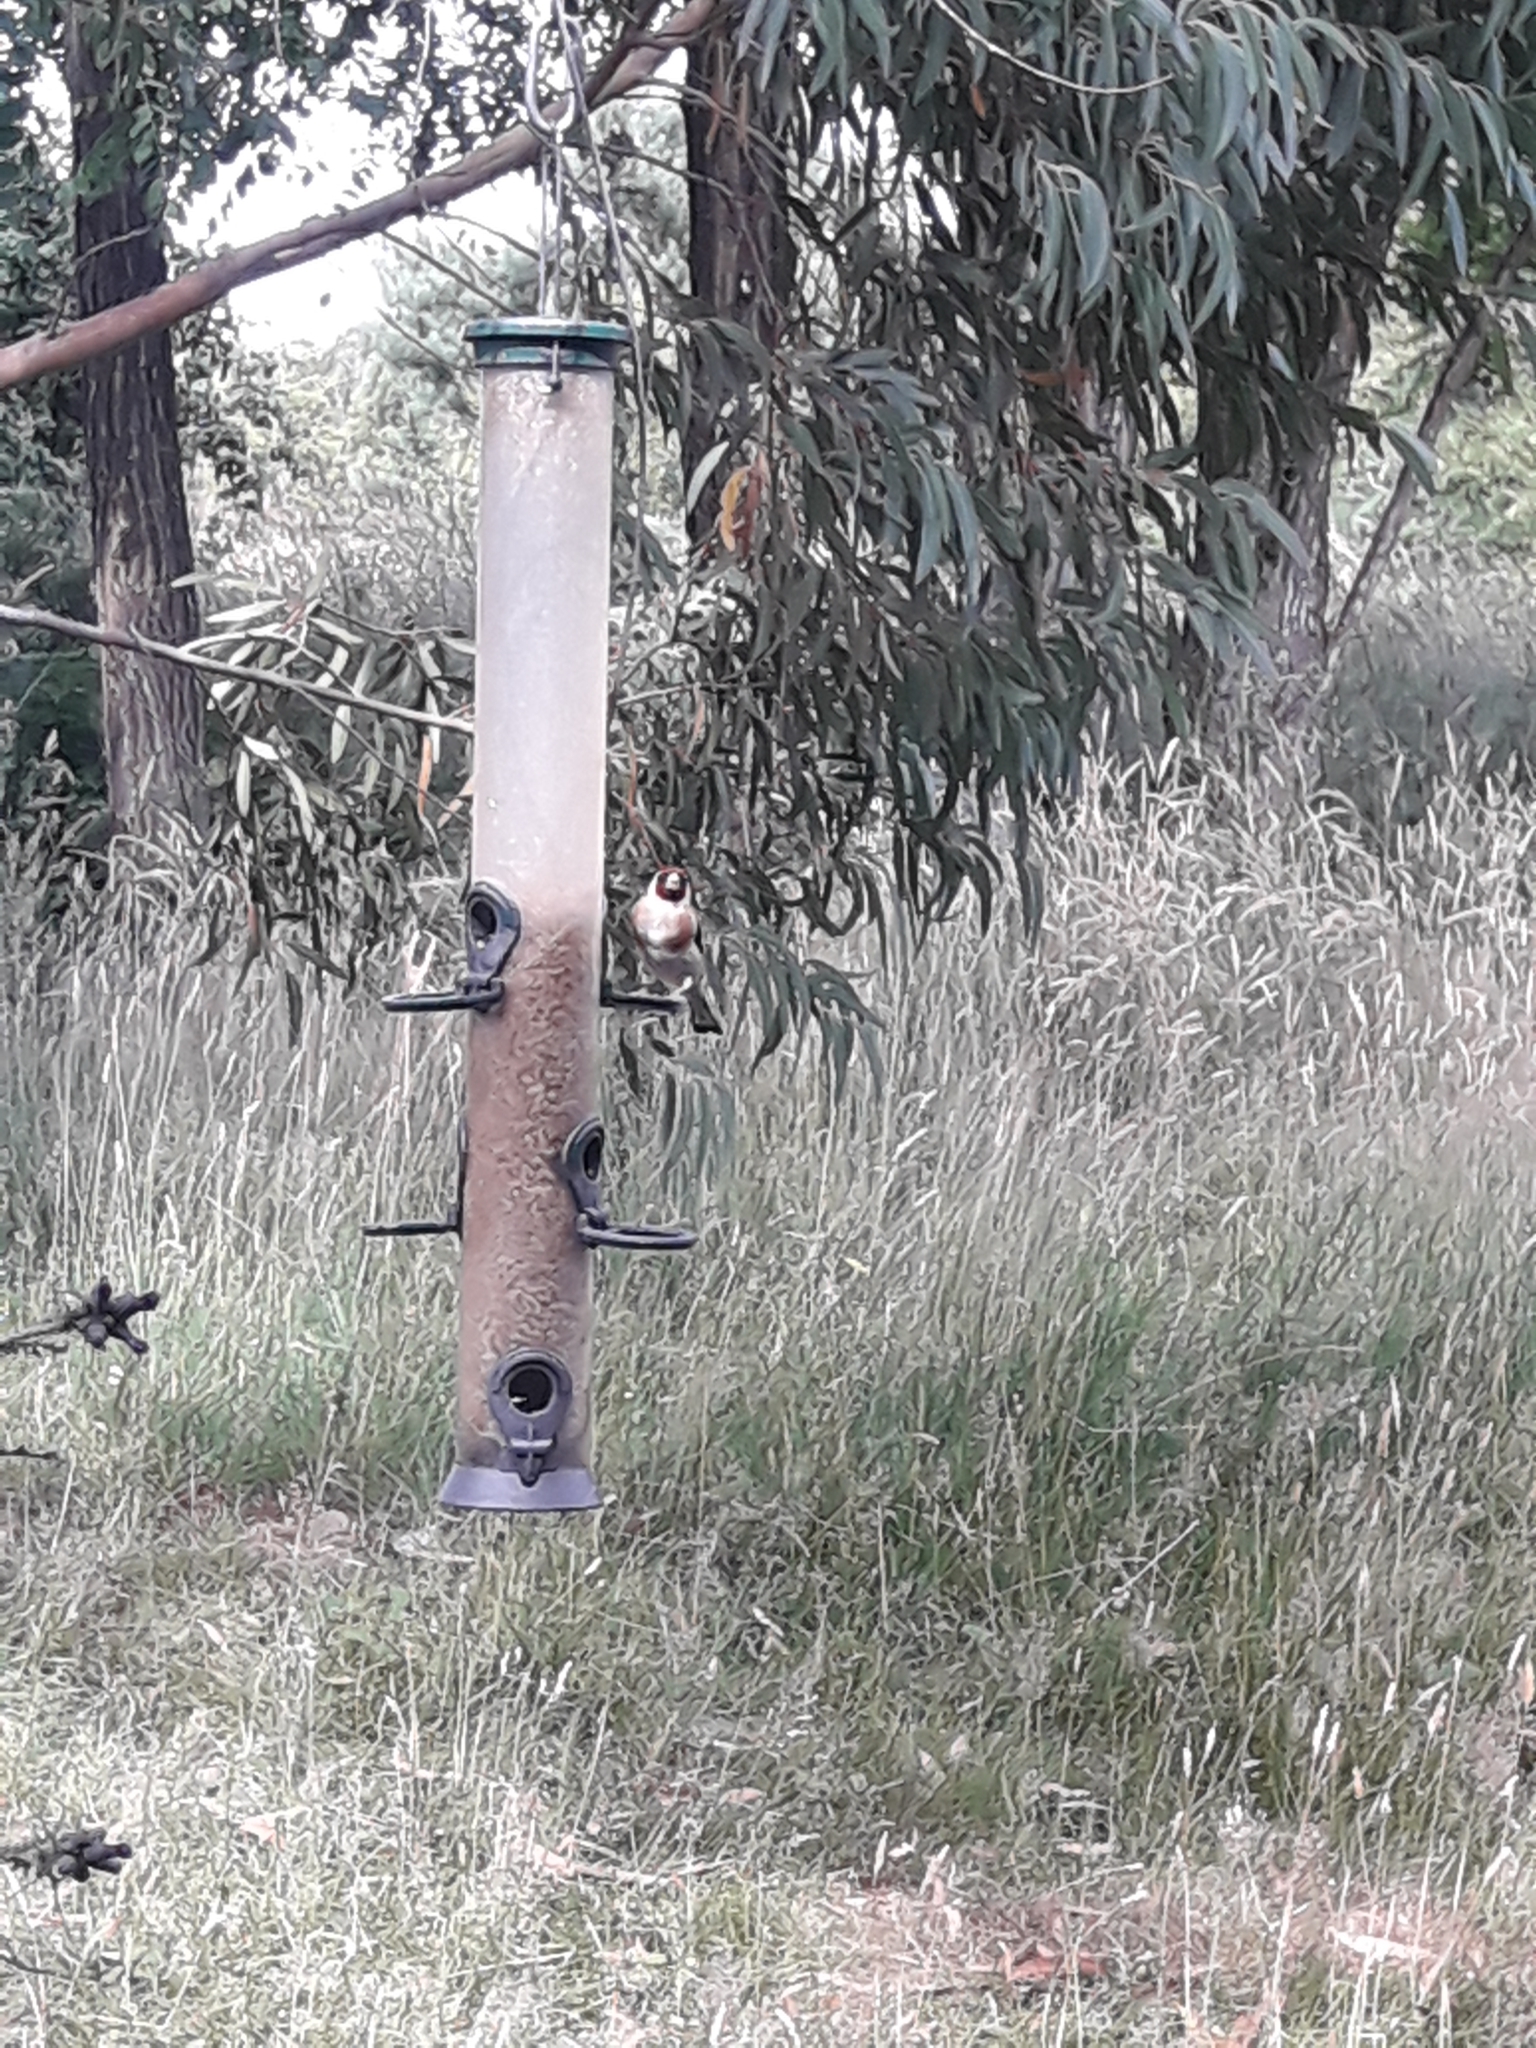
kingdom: Animalia
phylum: Chordata
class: Aves
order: Passeriformes
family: Fringillidae
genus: Carduelis
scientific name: Carduelis carduelis
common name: European goldfinch
